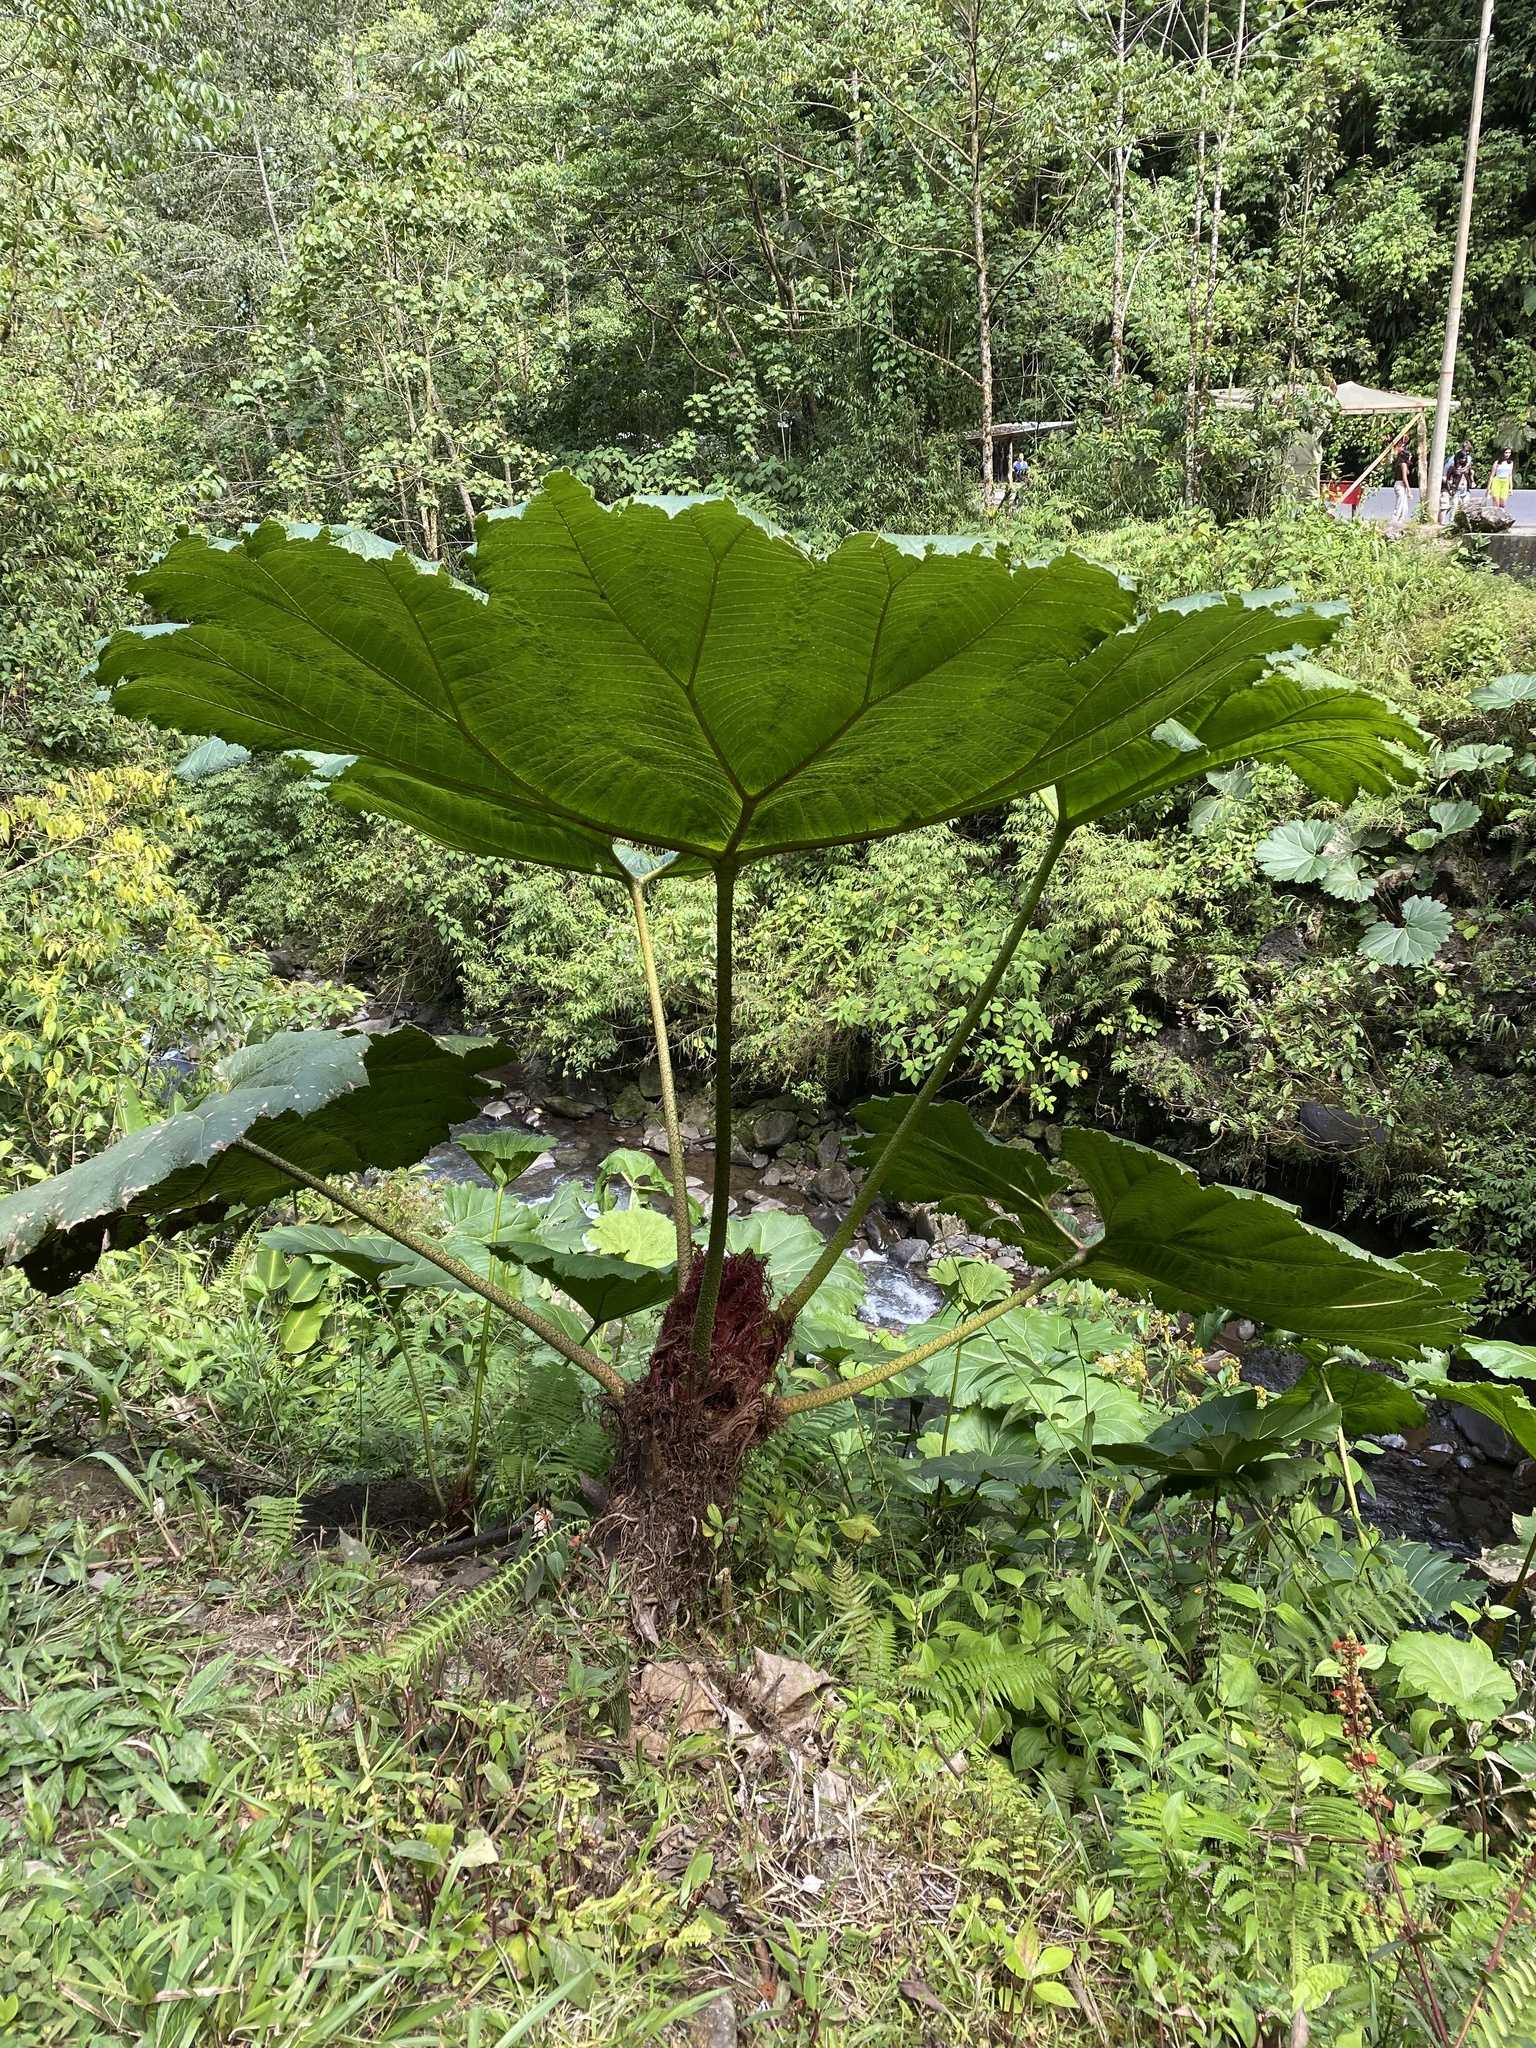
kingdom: Plantae
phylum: Tracheophyta
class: Magnoliopsida
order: Gunnerales
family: Gunneraceae
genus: Gunnera
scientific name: Gunnera insignis
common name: Poorman's umbrella
